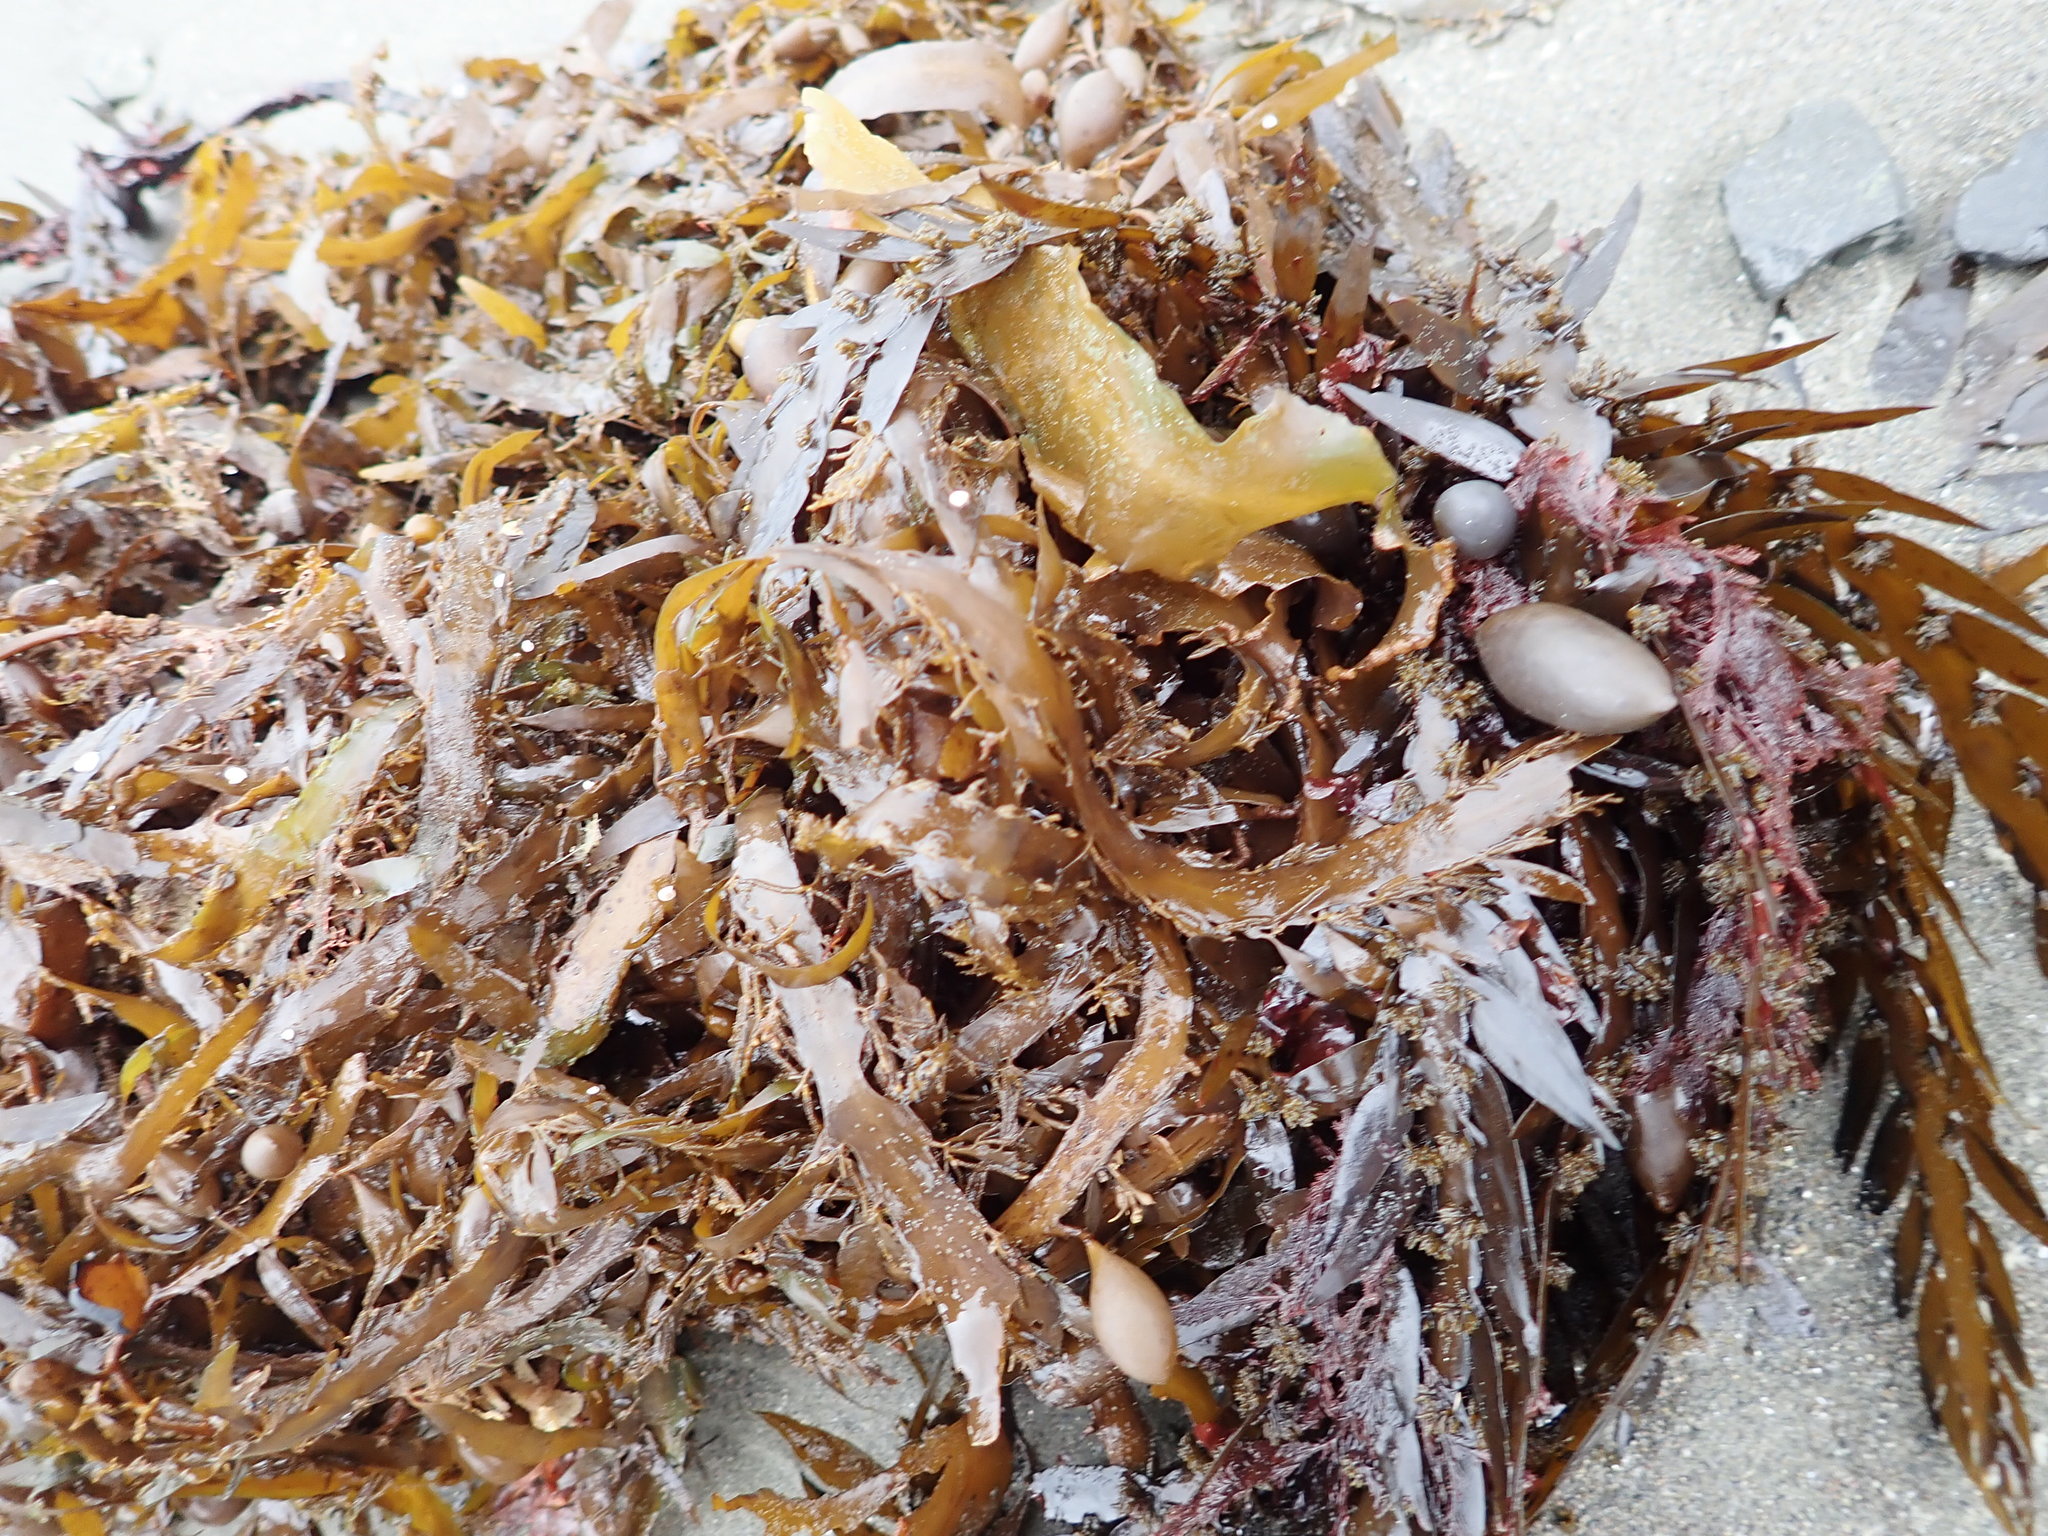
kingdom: Chromista
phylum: Ochrophyta
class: Phaeophyceae
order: Fucales
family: Sargassaceae
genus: Carpophyllum
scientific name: Carpophyllum maschalocarpum
